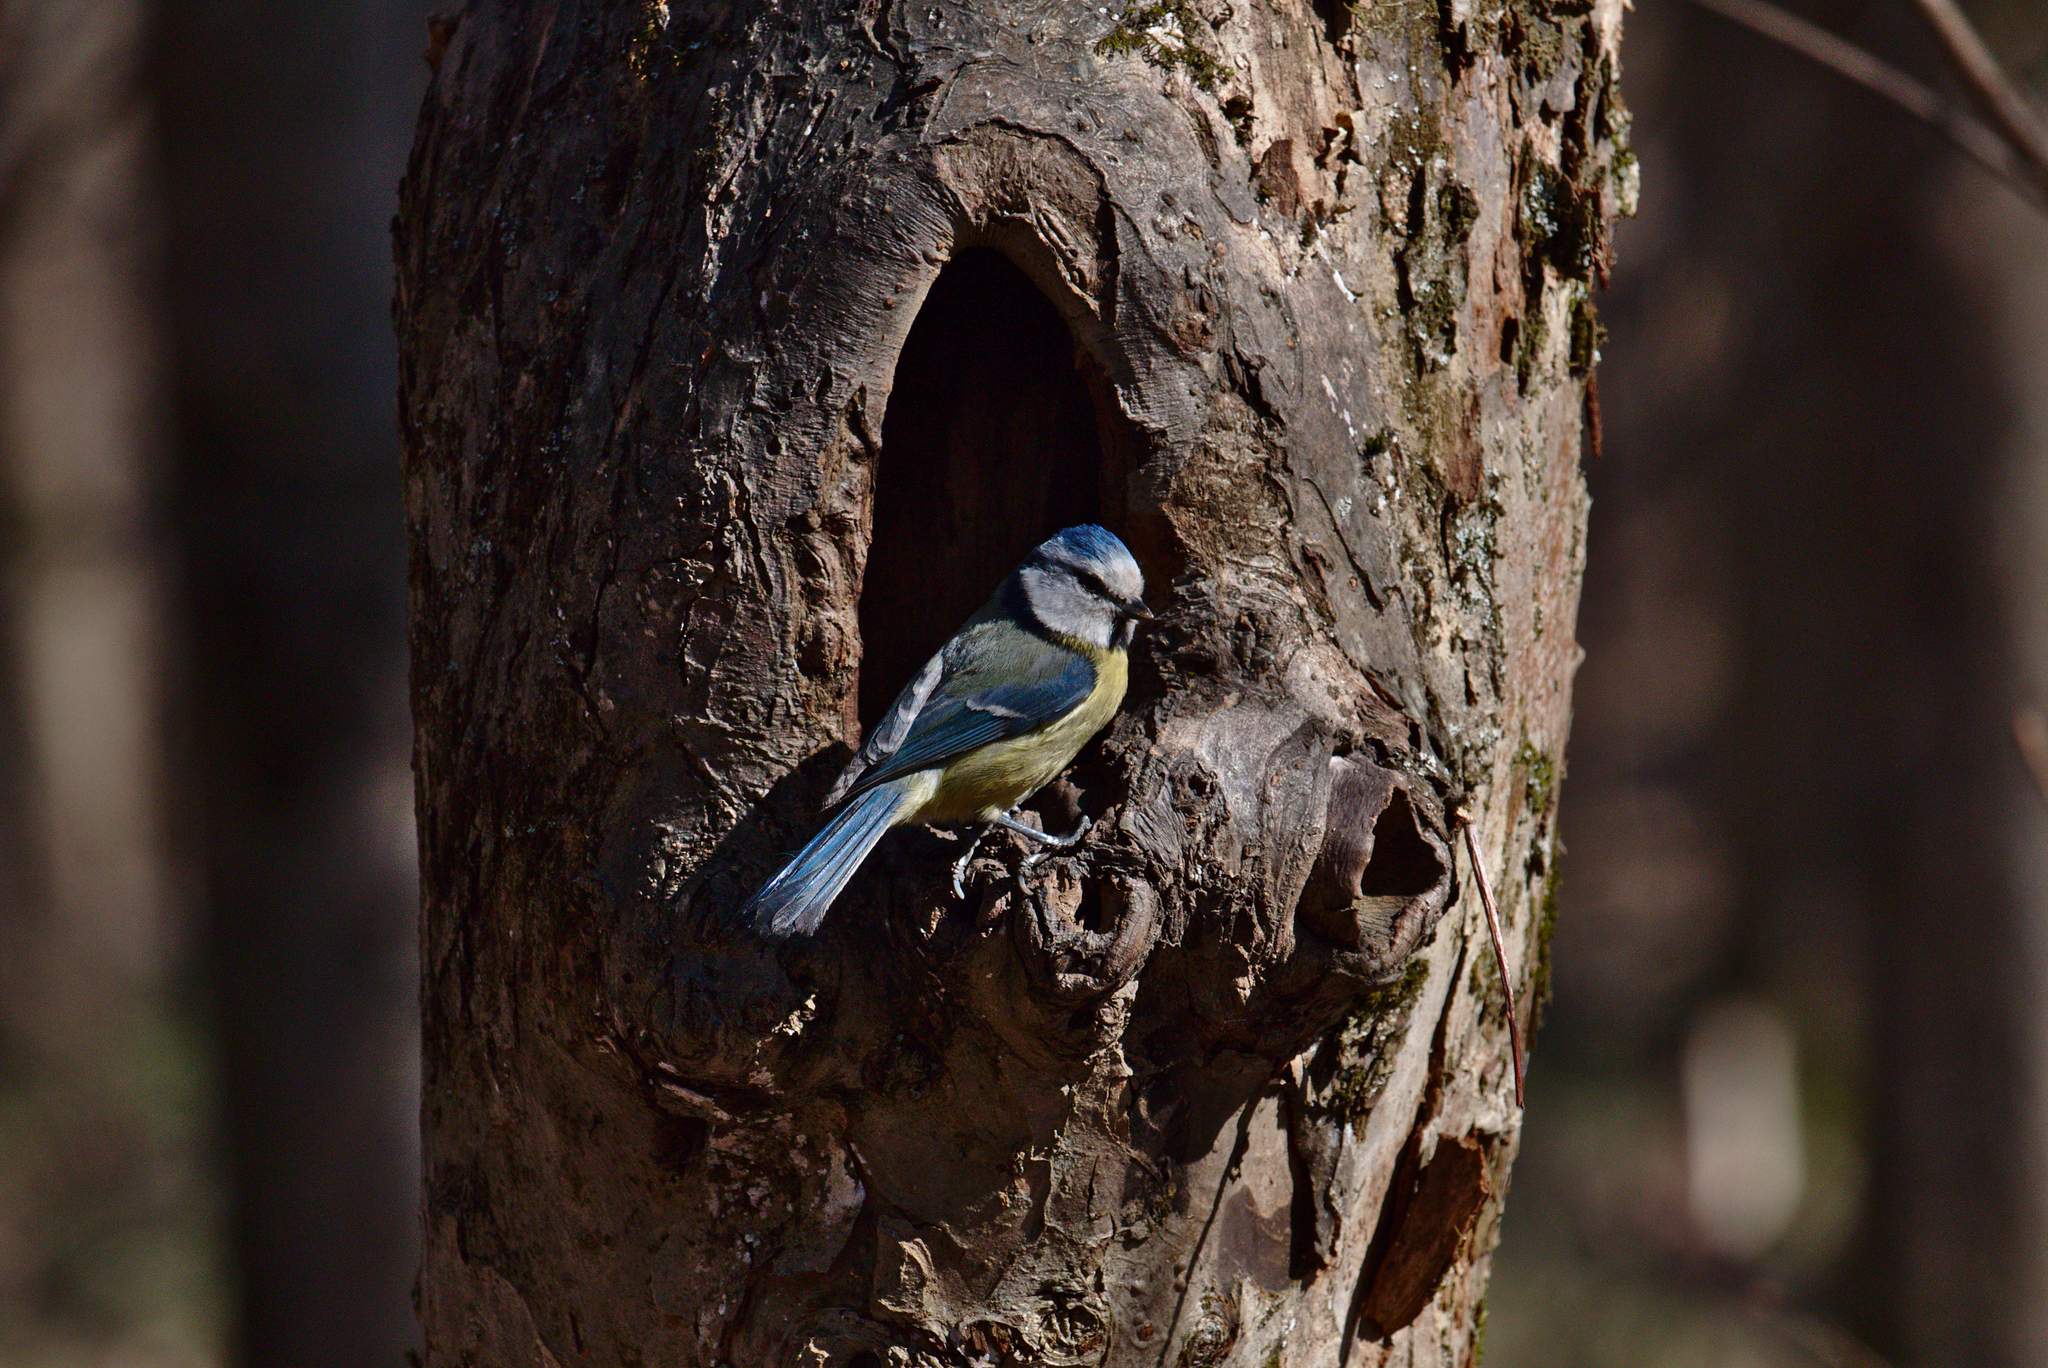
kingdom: Animalia
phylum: Chordata
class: Aves
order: Passeriformes
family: Paridae
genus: Cyanistes
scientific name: Cyanistes caeruleus
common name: Eurasian blue tit
